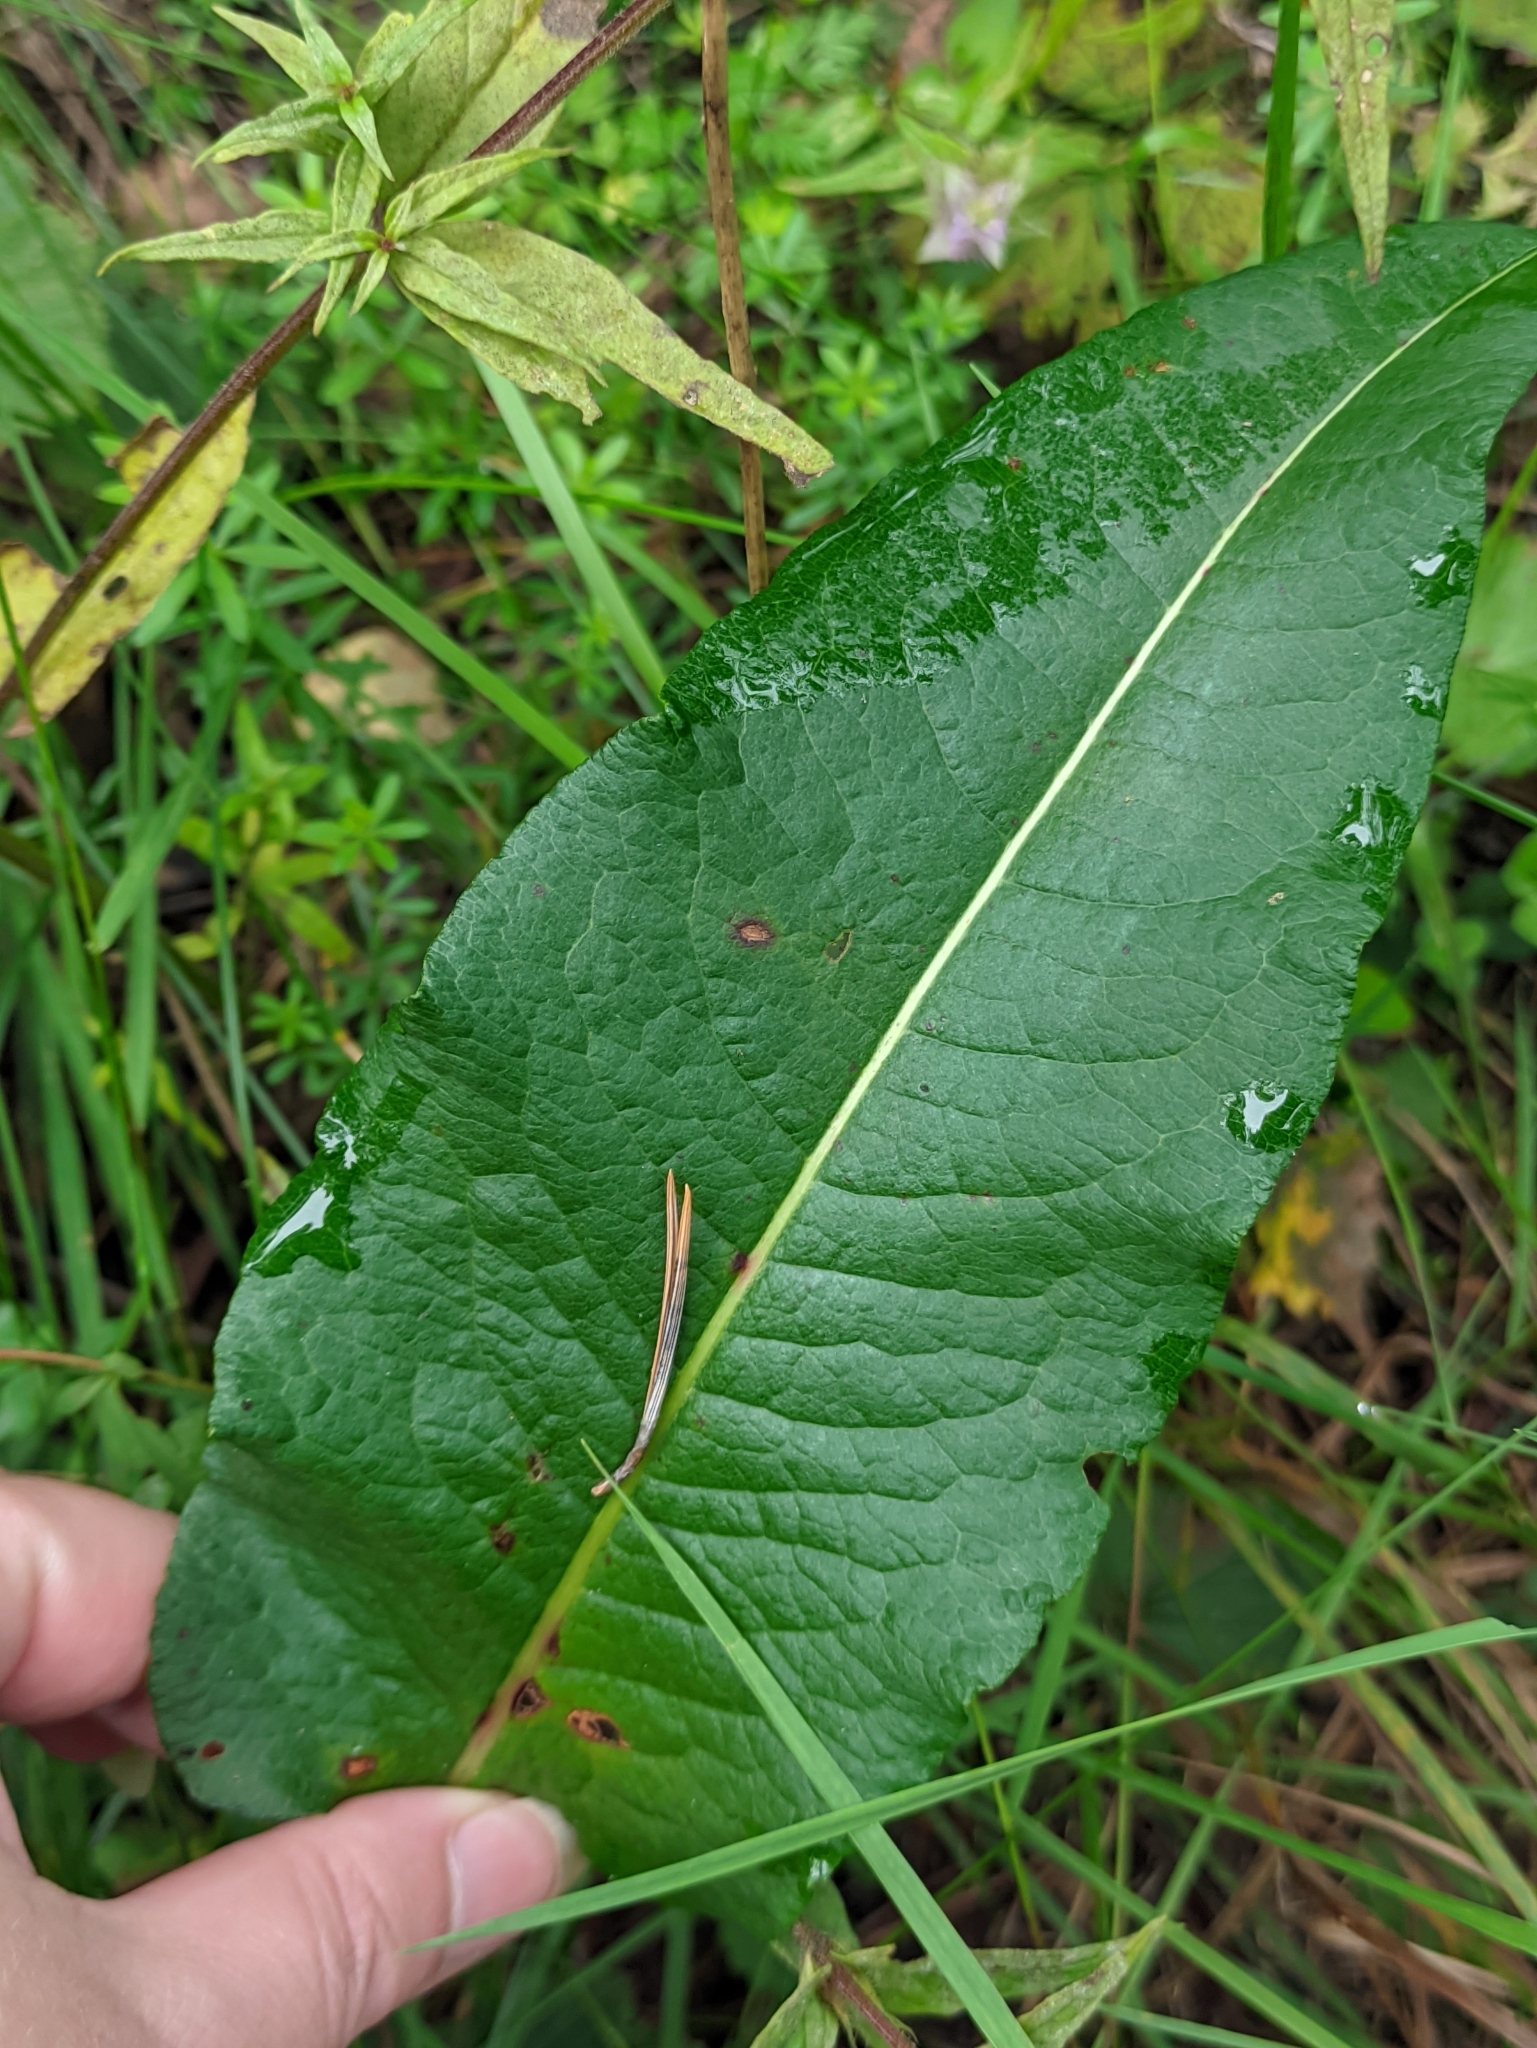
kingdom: Plantae
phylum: Tracheophyta
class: Magnoliopsida
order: Caryophyllales
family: Polygonaceae
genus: Bistorta
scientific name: Bistorta officinalis
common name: Common bistort
